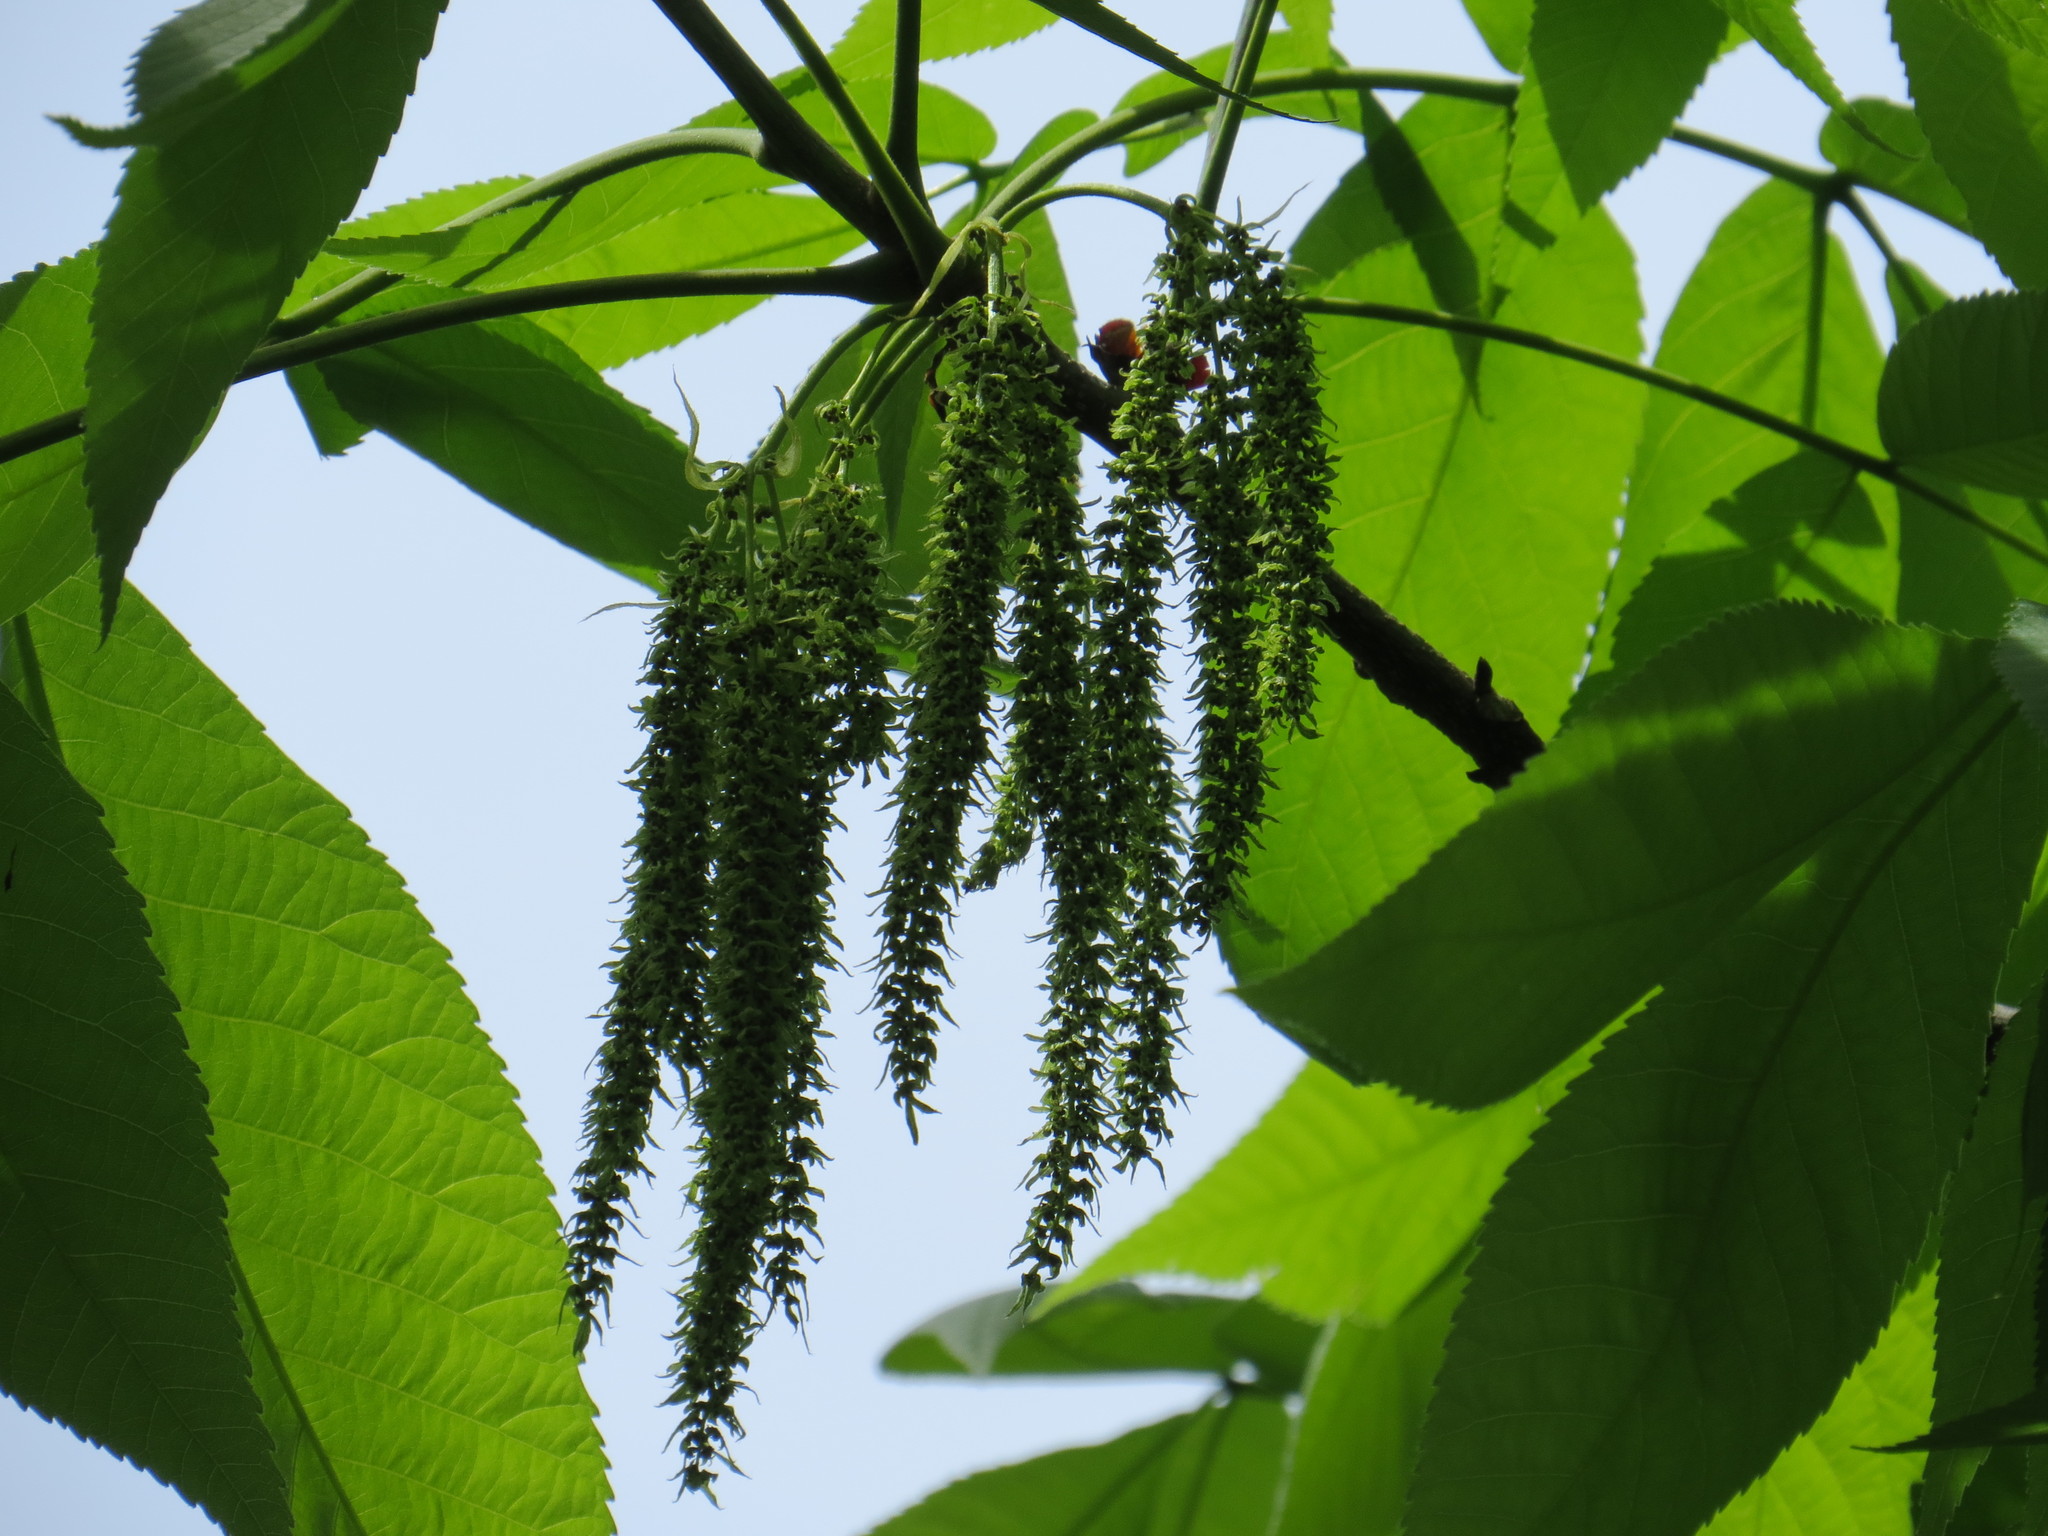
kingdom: Plantae
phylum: Tracheophyta
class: Magnoliopsida
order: Fagales
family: Juglandaceae
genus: Carya
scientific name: Carya cordiformis
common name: Bitternut hickory
